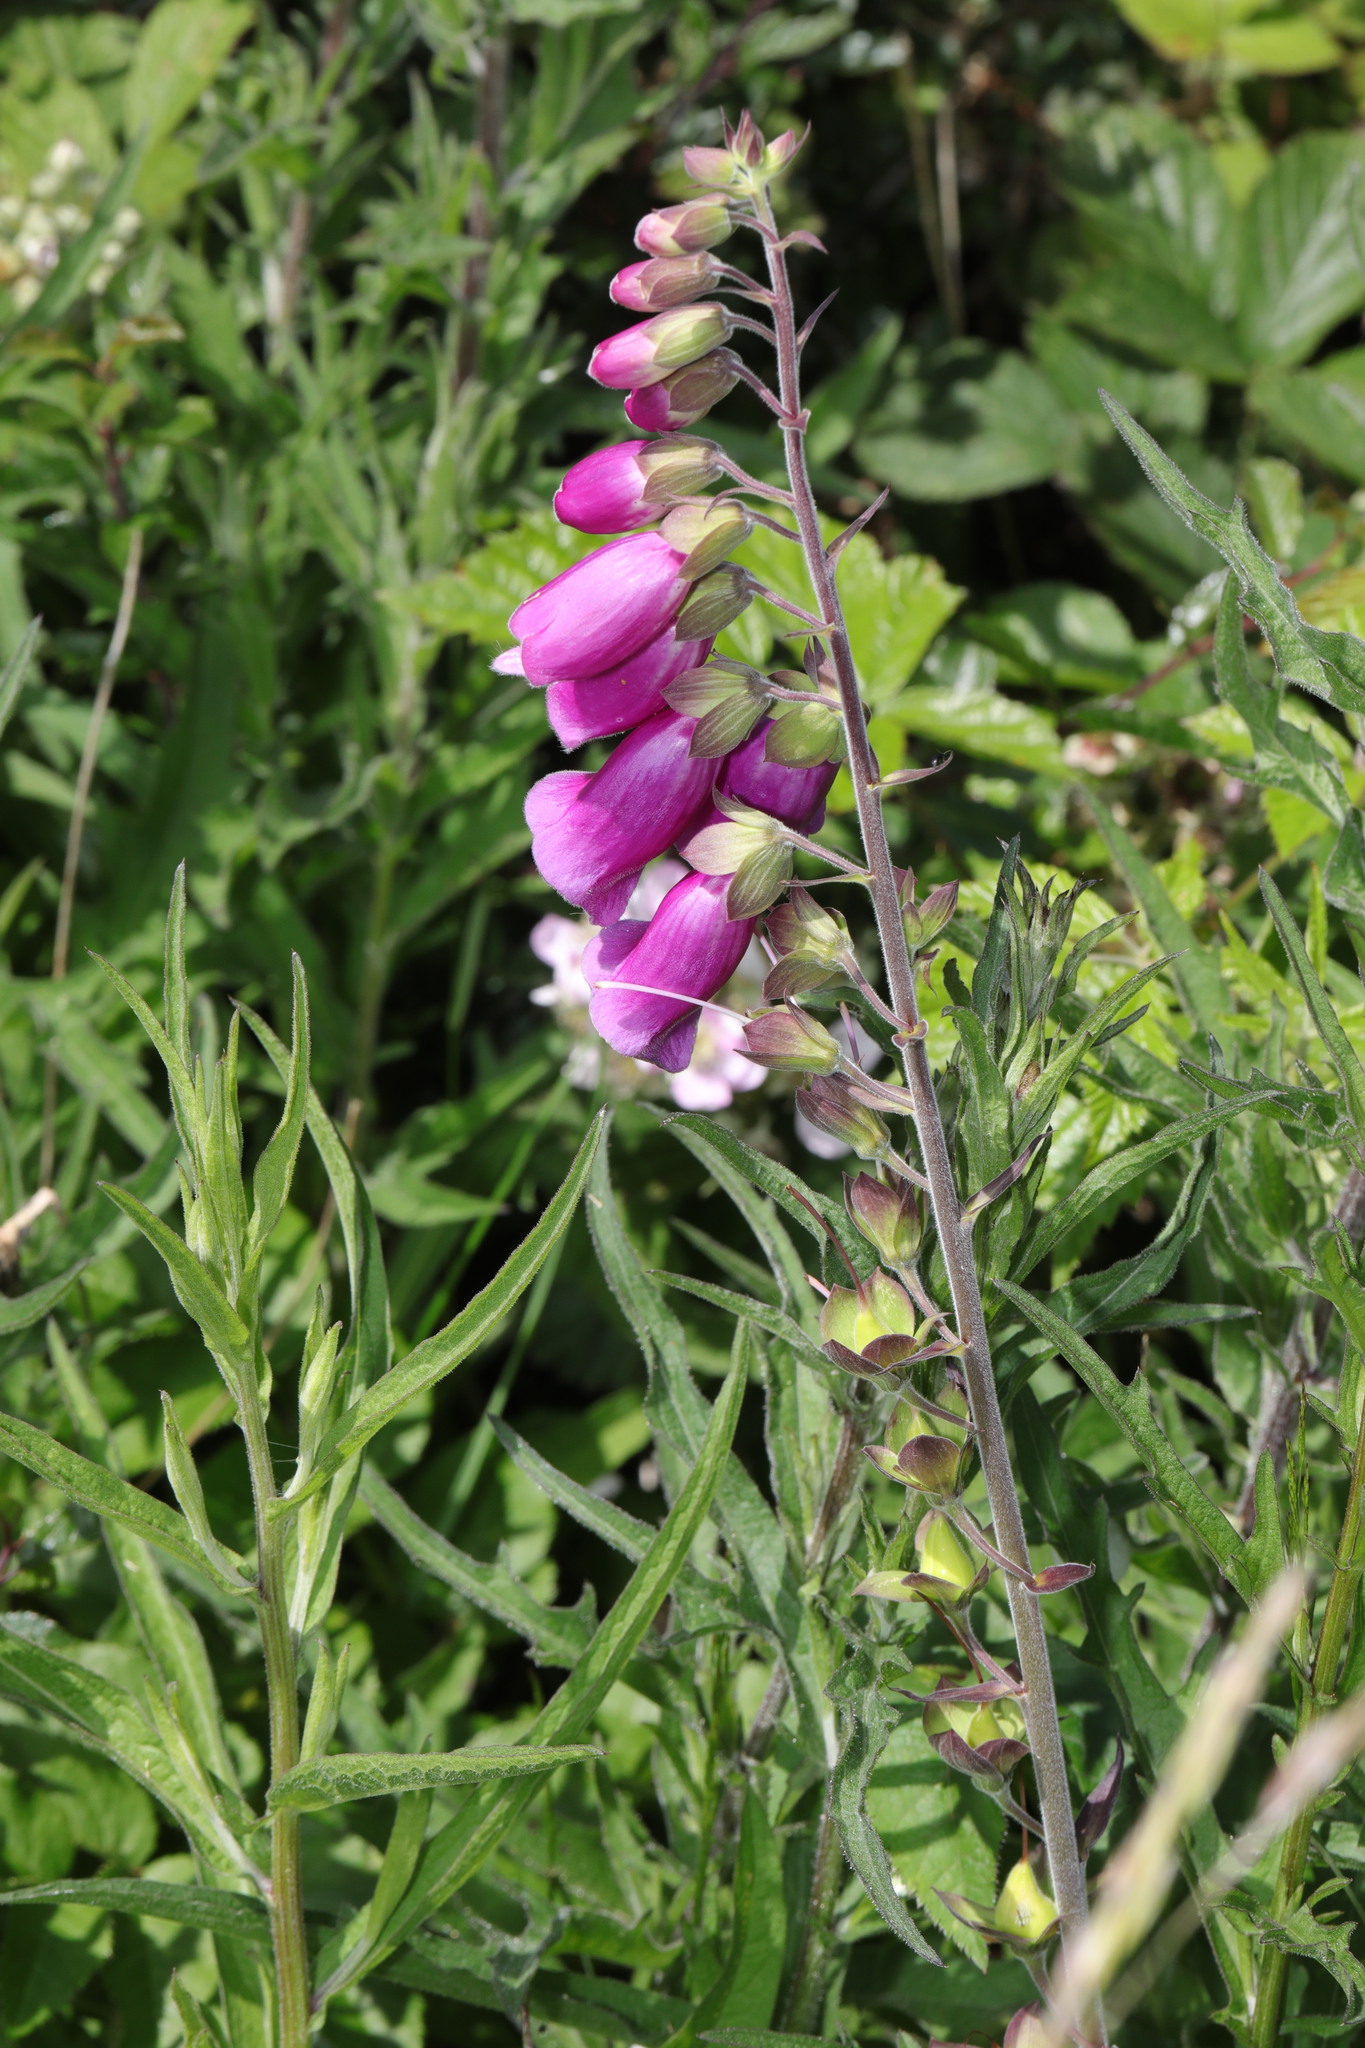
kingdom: Plantae
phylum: Tracheophyta
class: Magnoliopsida
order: Lamiales
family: Plantaginaceae
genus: Digitalis
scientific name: Digitalis purpurea
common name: Foxglove
